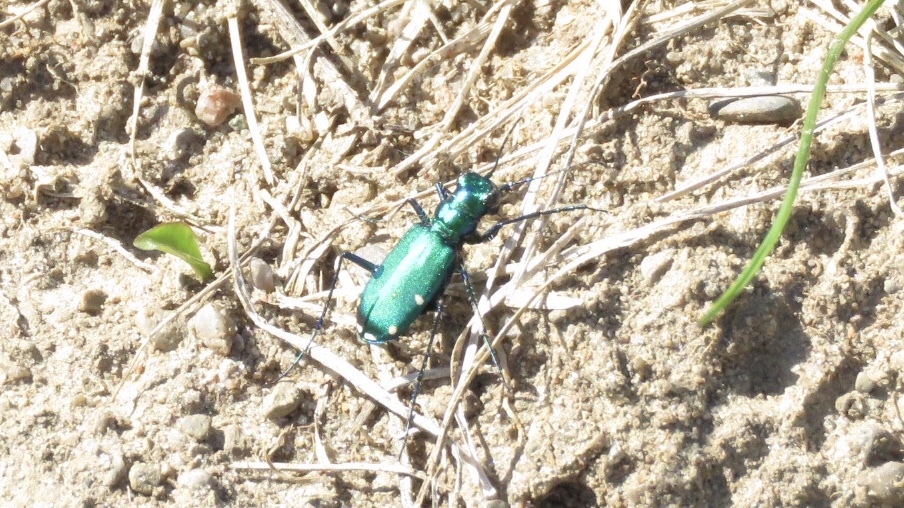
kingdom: Animalia
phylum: Arthropoda
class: Insecta
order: Coleoptera
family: Carabidae
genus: Cicindela
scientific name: Cicindela sexguttata
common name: Six-spotted tiger beetle
